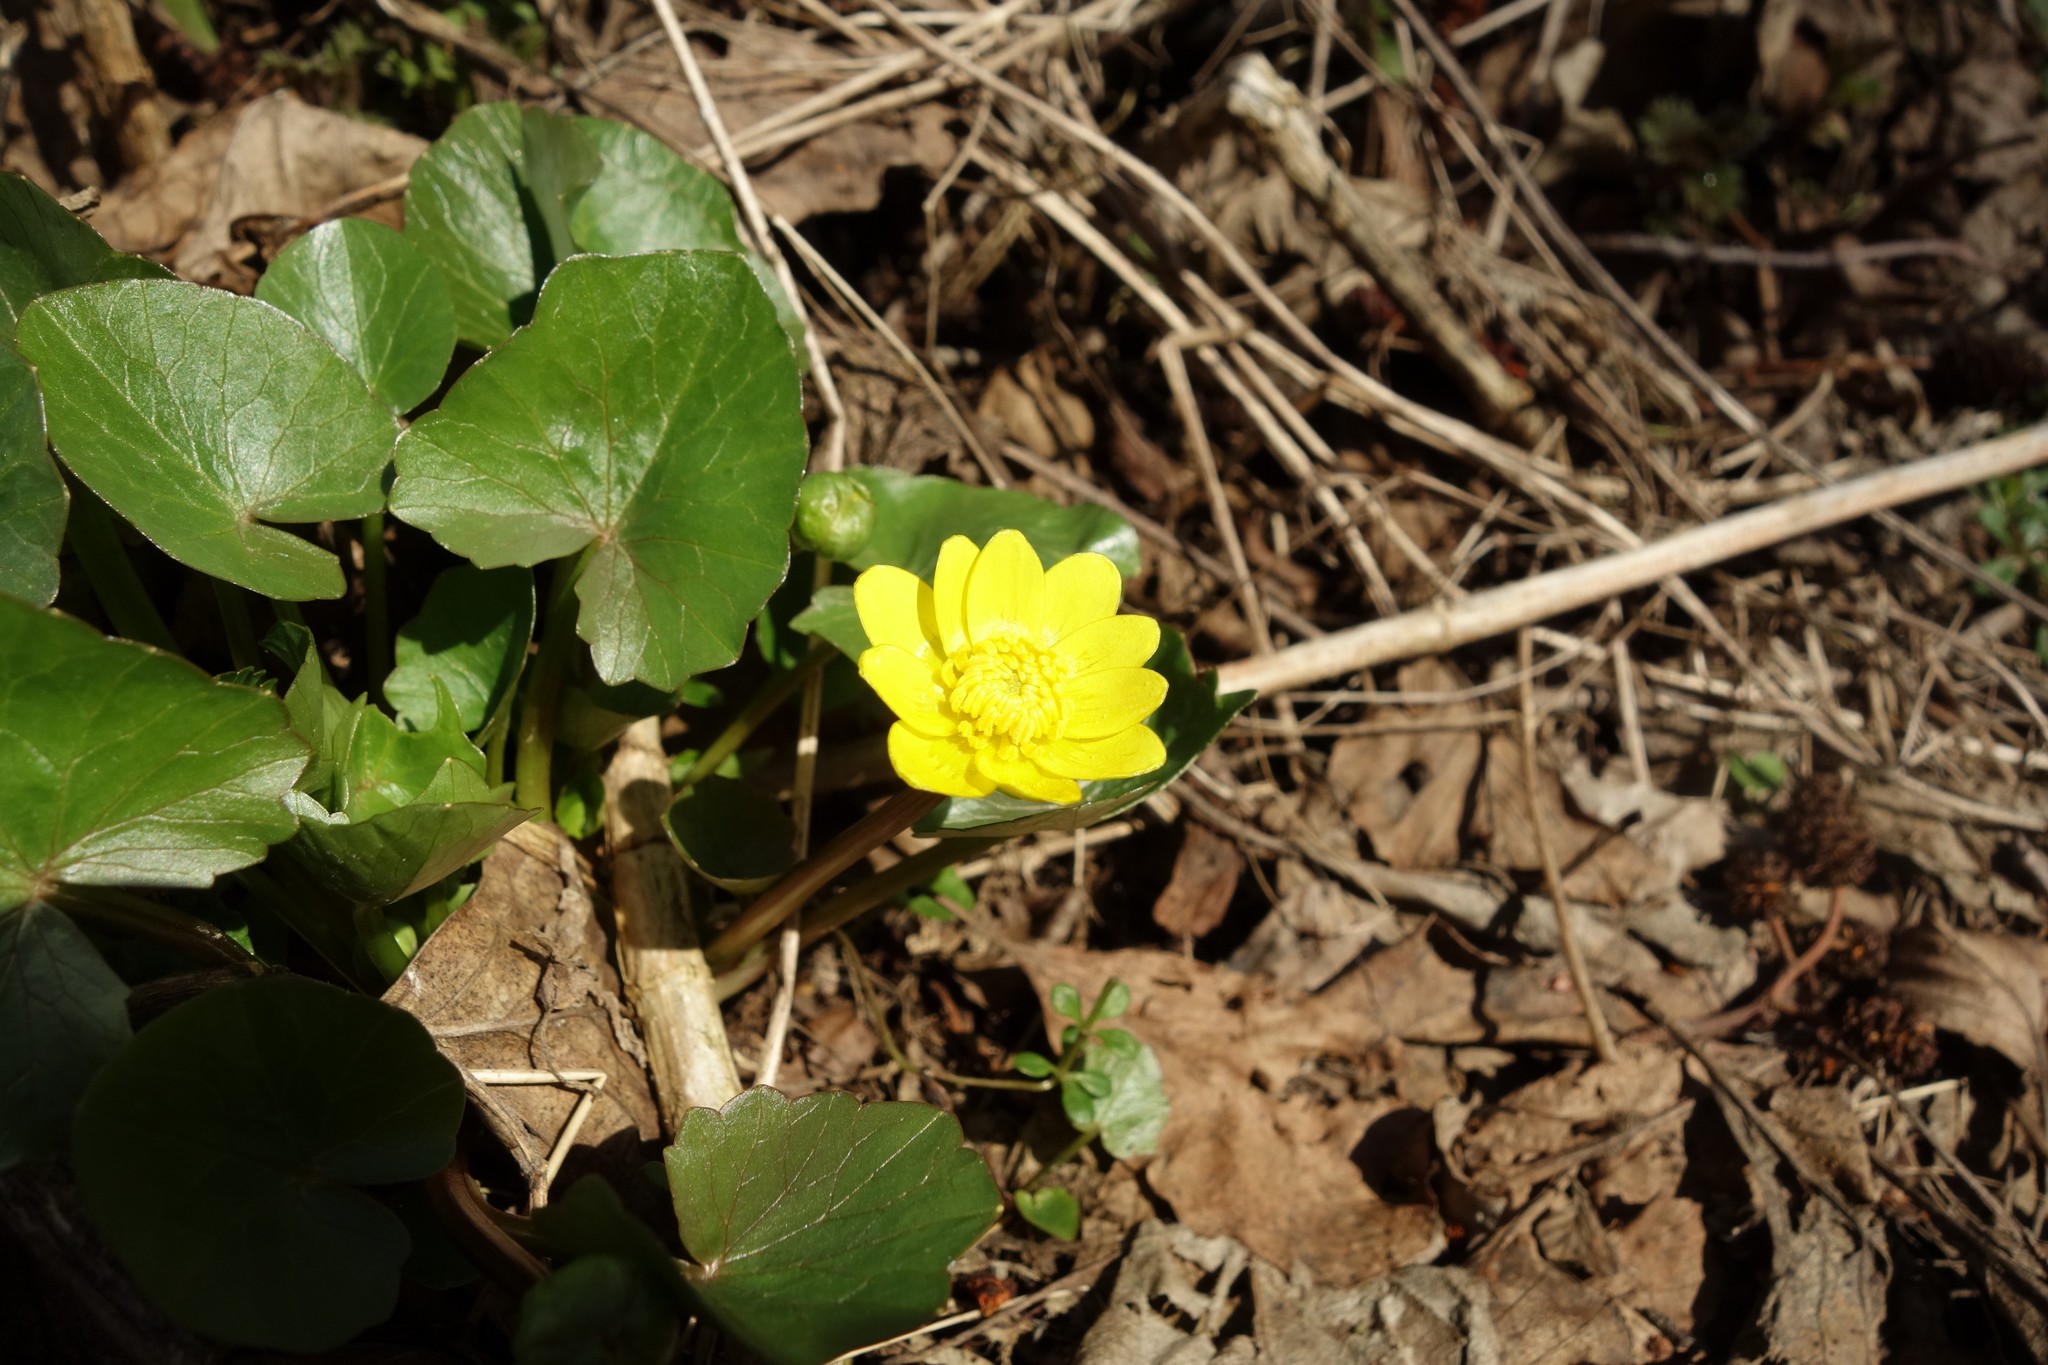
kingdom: Plantae
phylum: Tracheophyta
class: Magnoliopsida
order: Ranunculales
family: Ranunculaceae
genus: Ficaria
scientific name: Ficaria verna
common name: Lesser celandine
